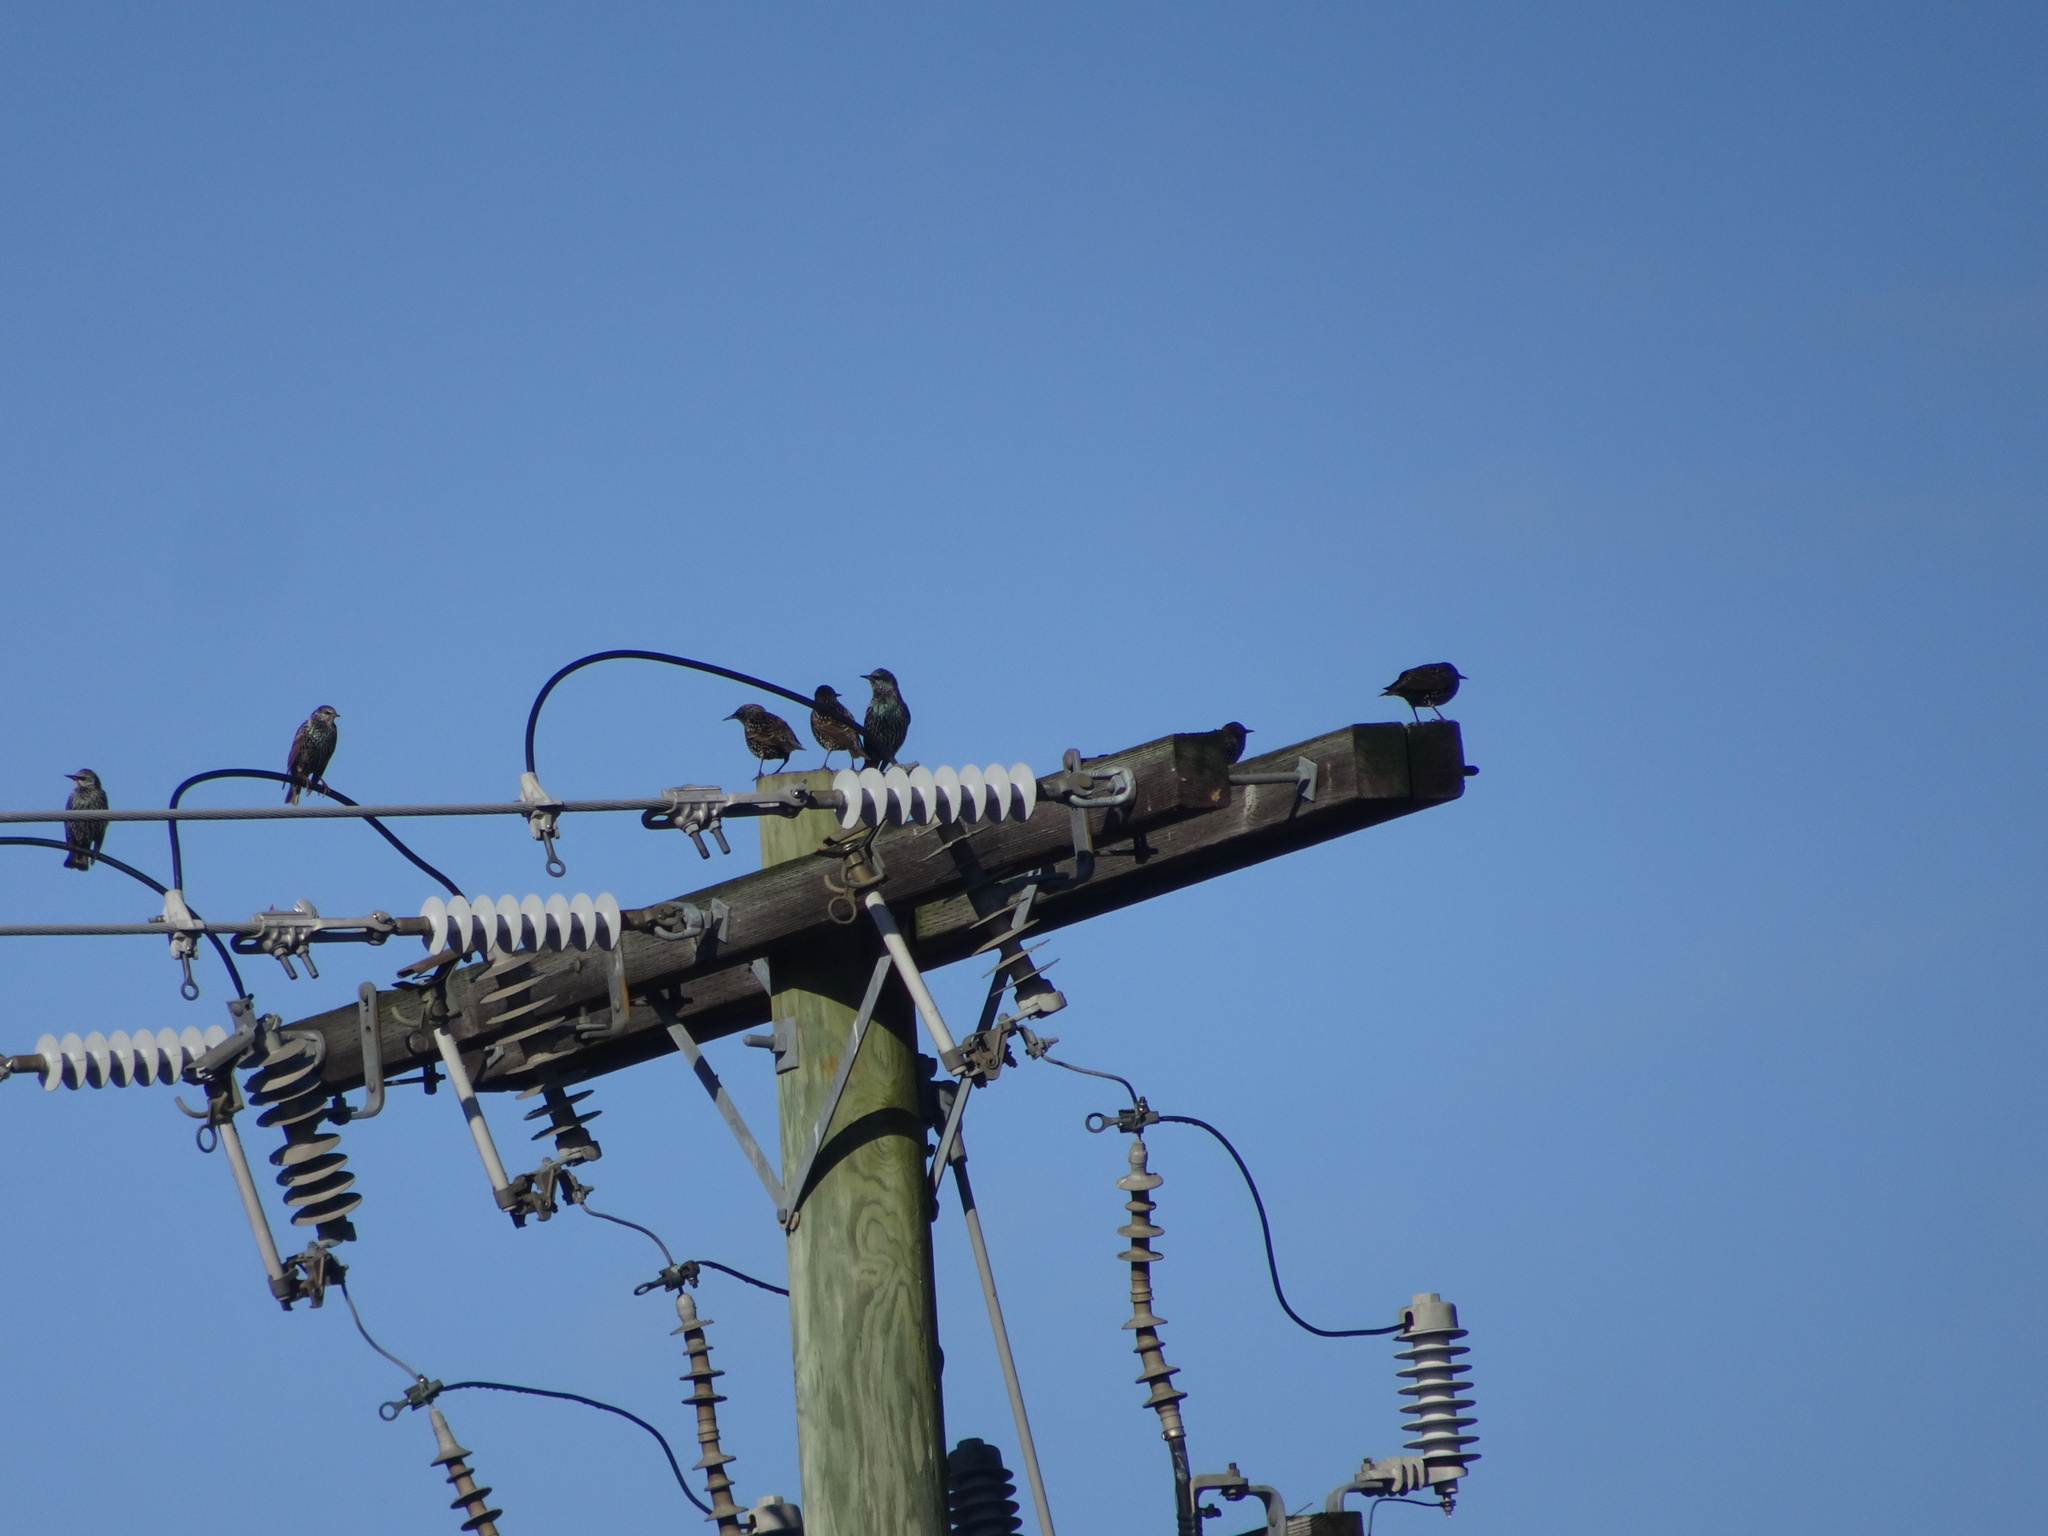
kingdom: Animalia
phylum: Chordata
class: Aves
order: Passeriformes
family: Sturnidae
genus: Sturnus
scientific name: Sturnus vulgaris
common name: Common starling
